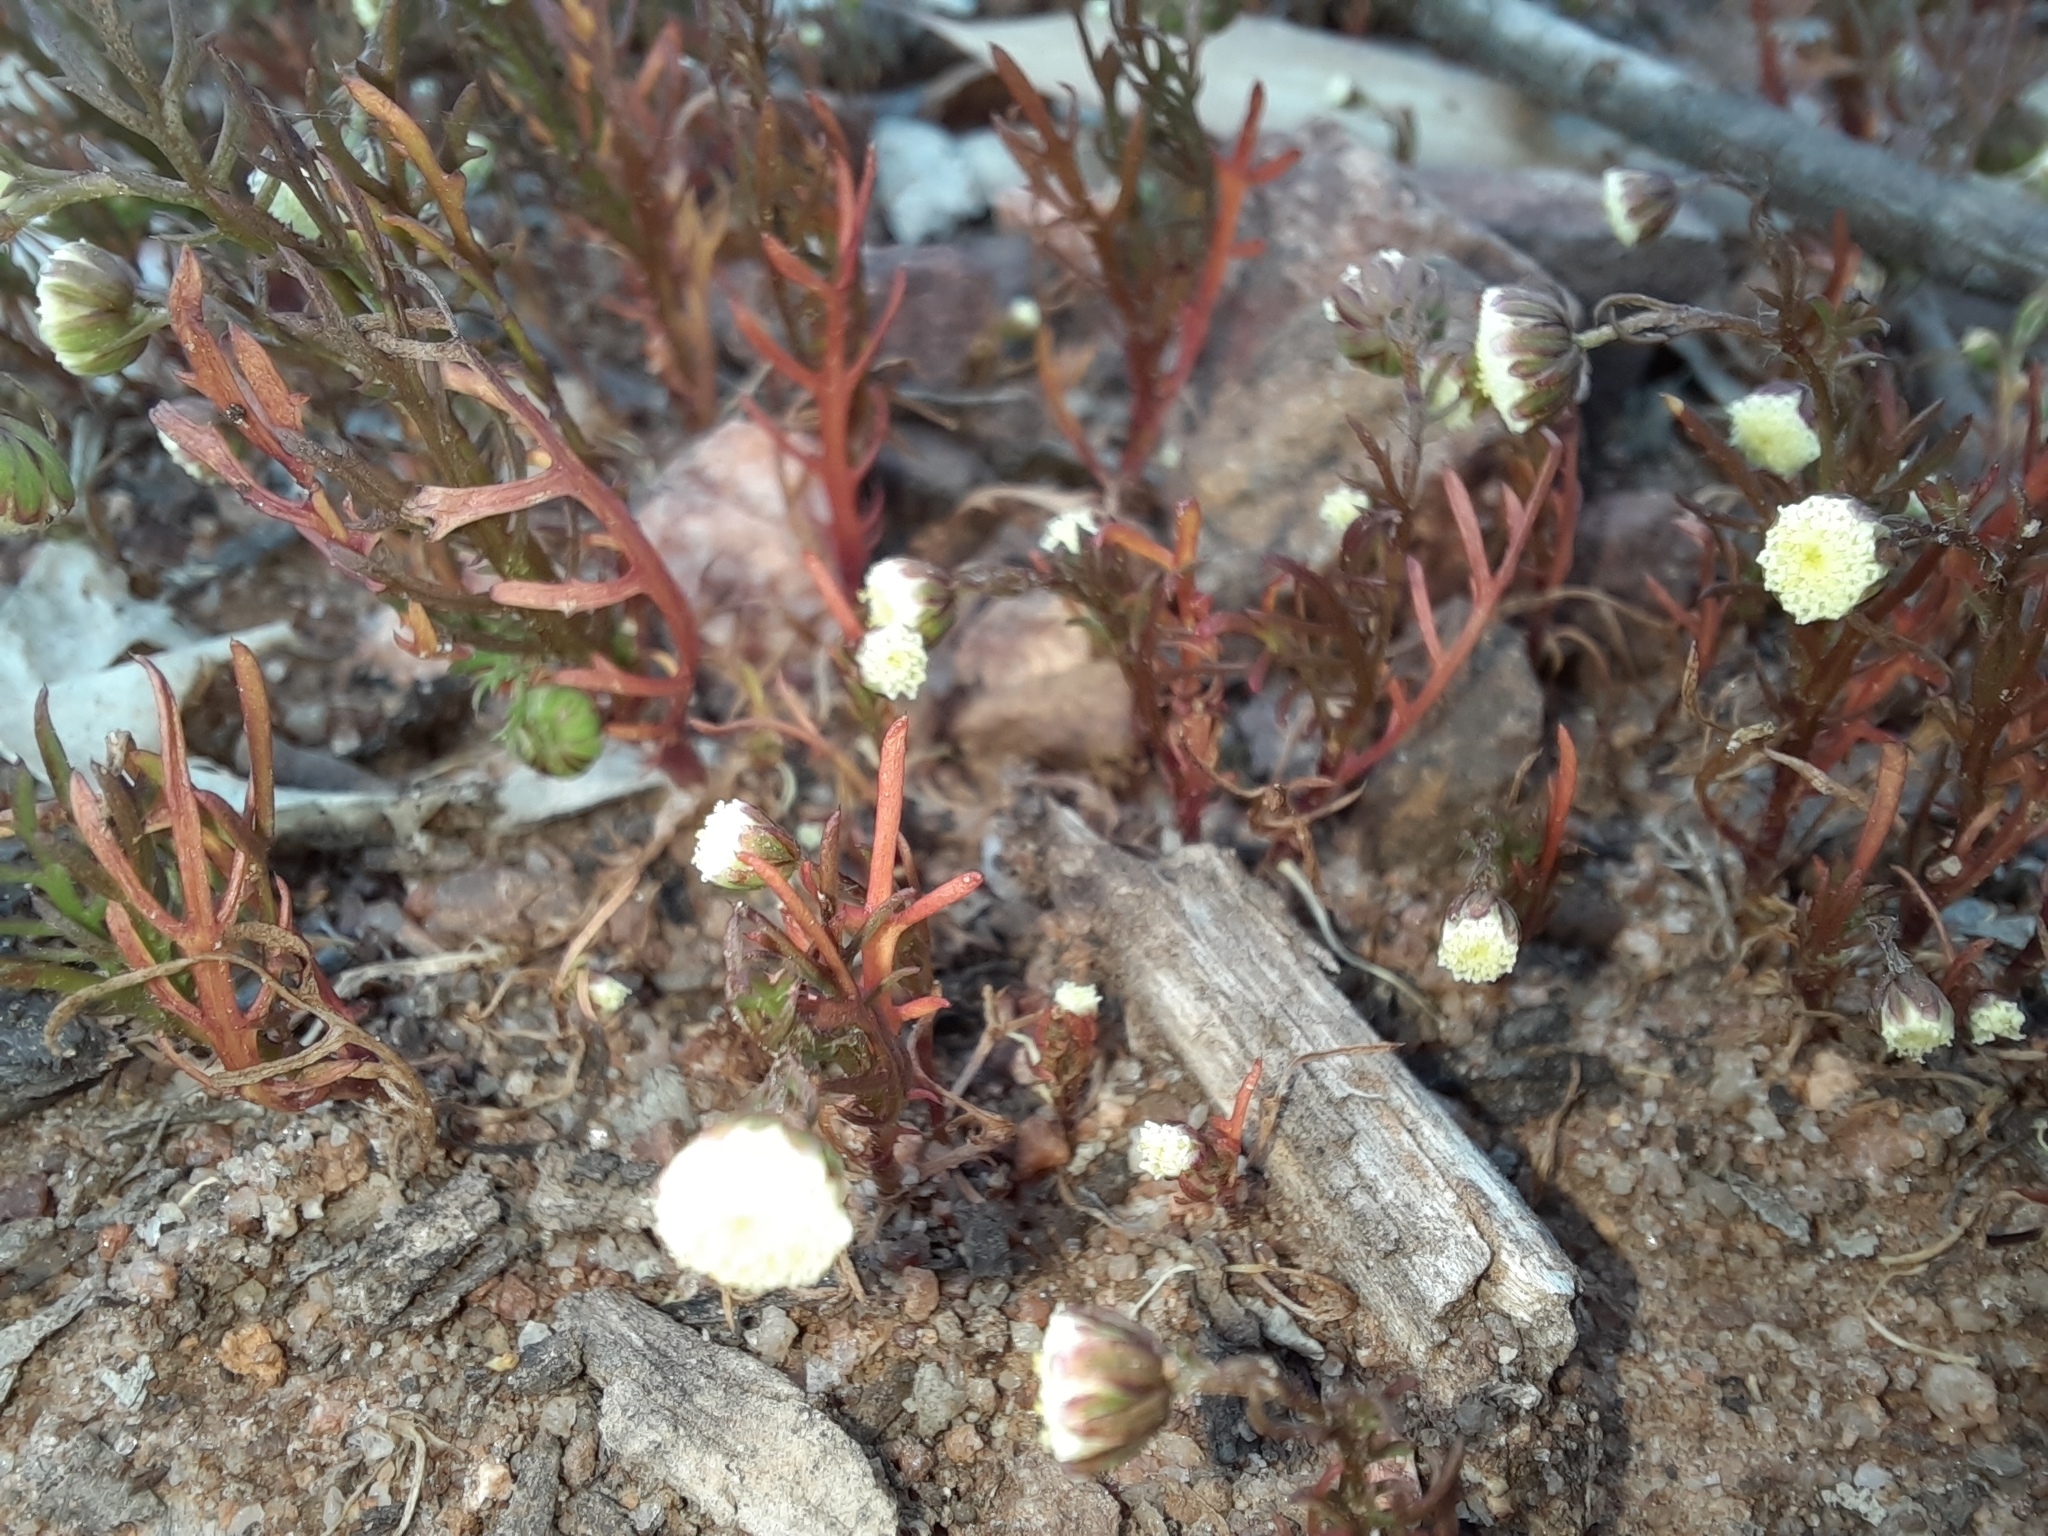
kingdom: Plantae
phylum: Tracheophyta
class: Magnoliopsida
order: Asterales
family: Asteraceae
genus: Cotula
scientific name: Cotula bipinnata
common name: Ferny buttonweed
